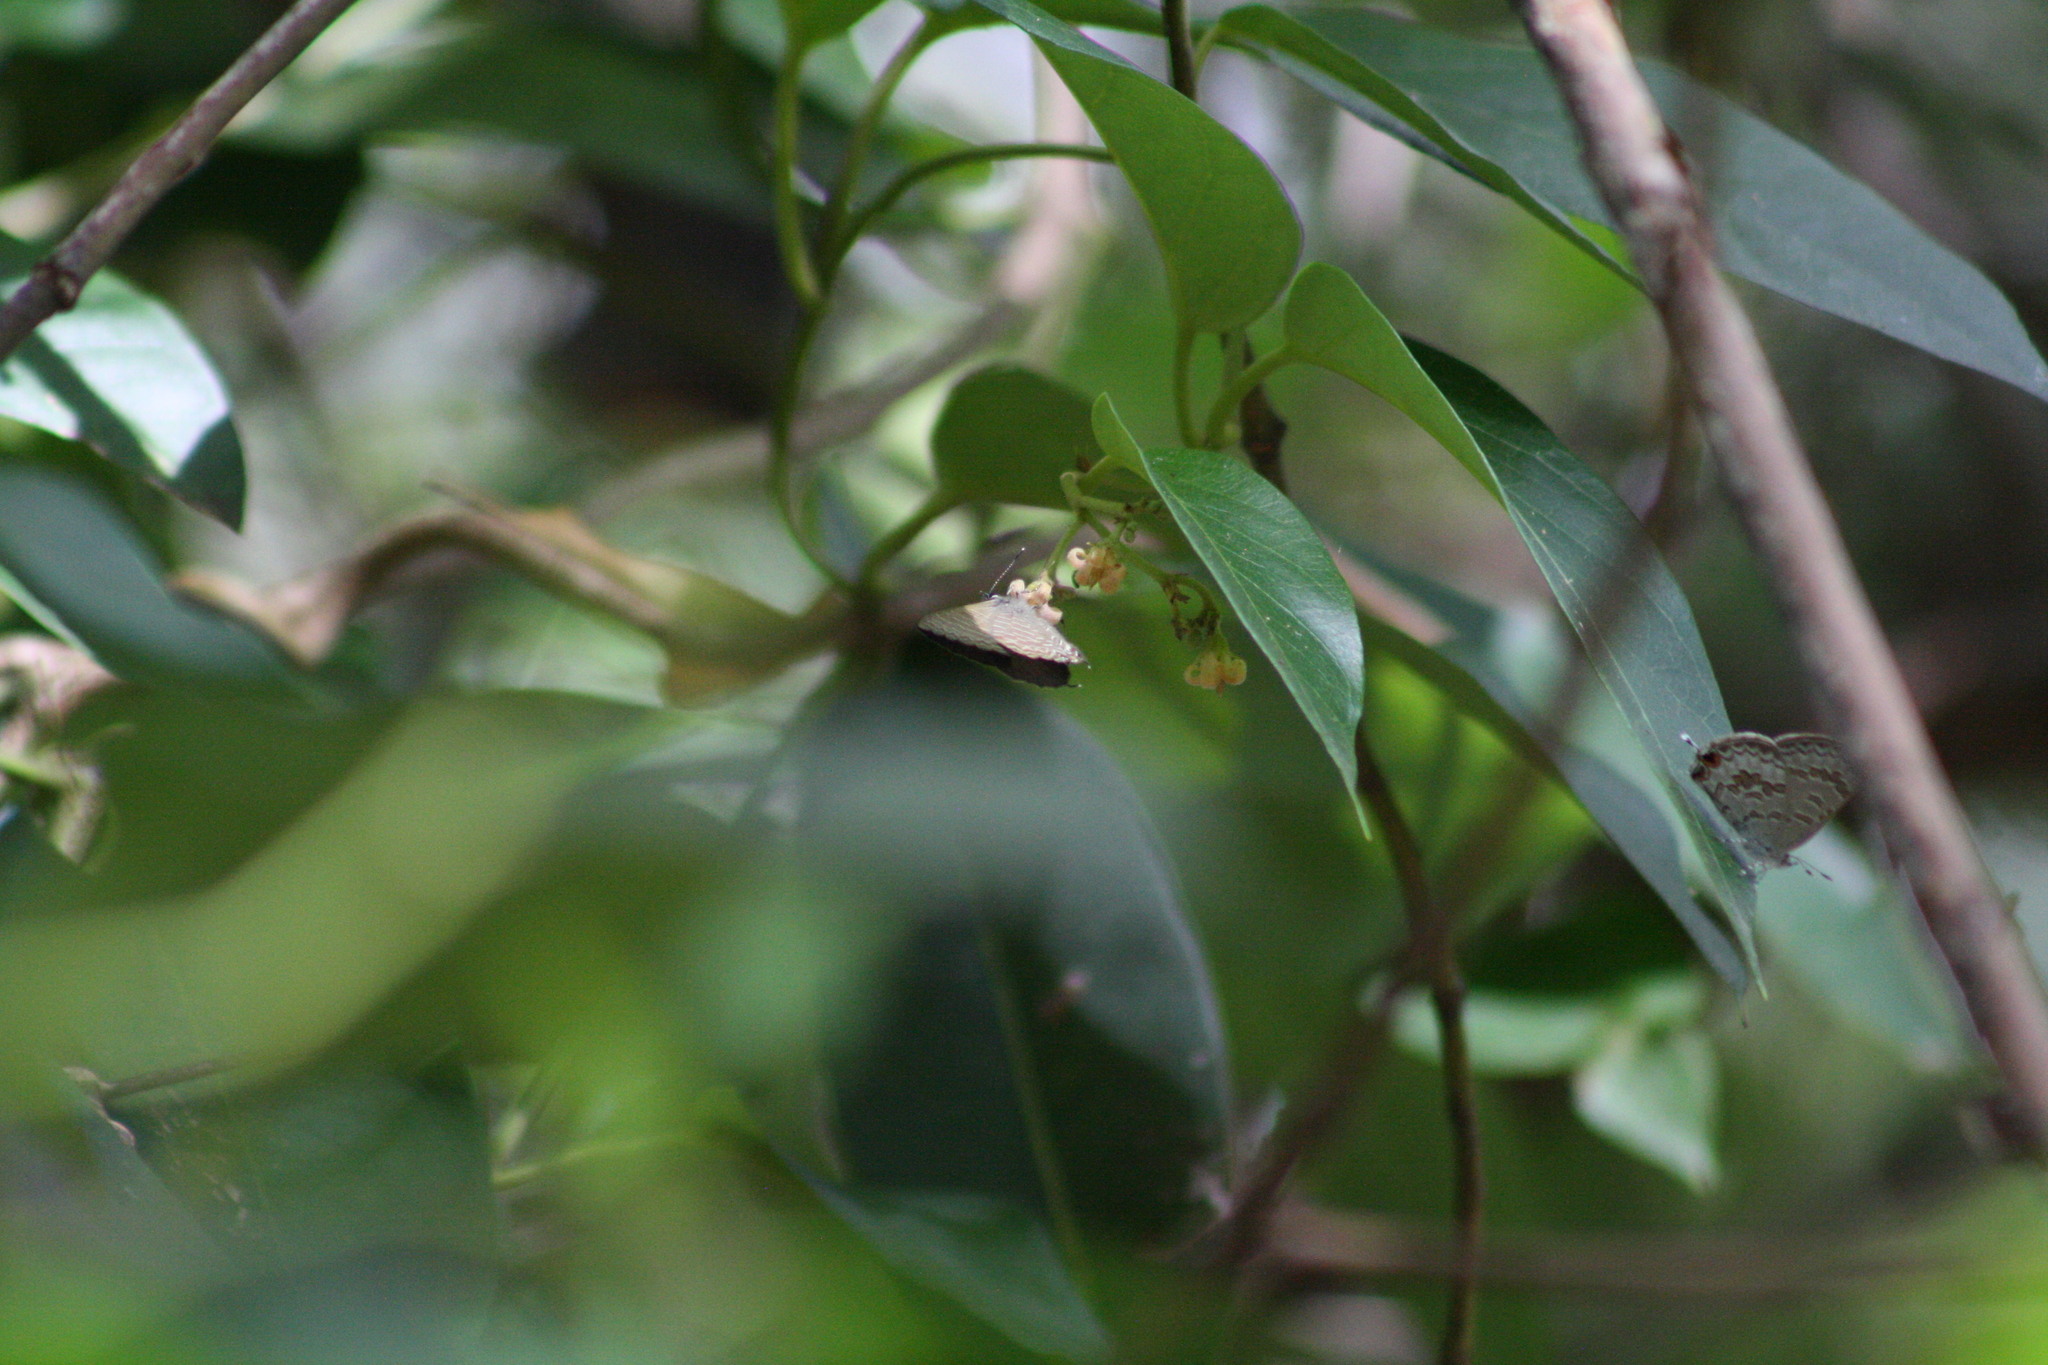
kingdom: Animalia
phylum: Arthropoda
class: Insecta
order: Lepidoptera
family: Lycaenidae
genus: Catopyrops
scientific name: Catopyrops florinda
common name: Speckled line-blue
